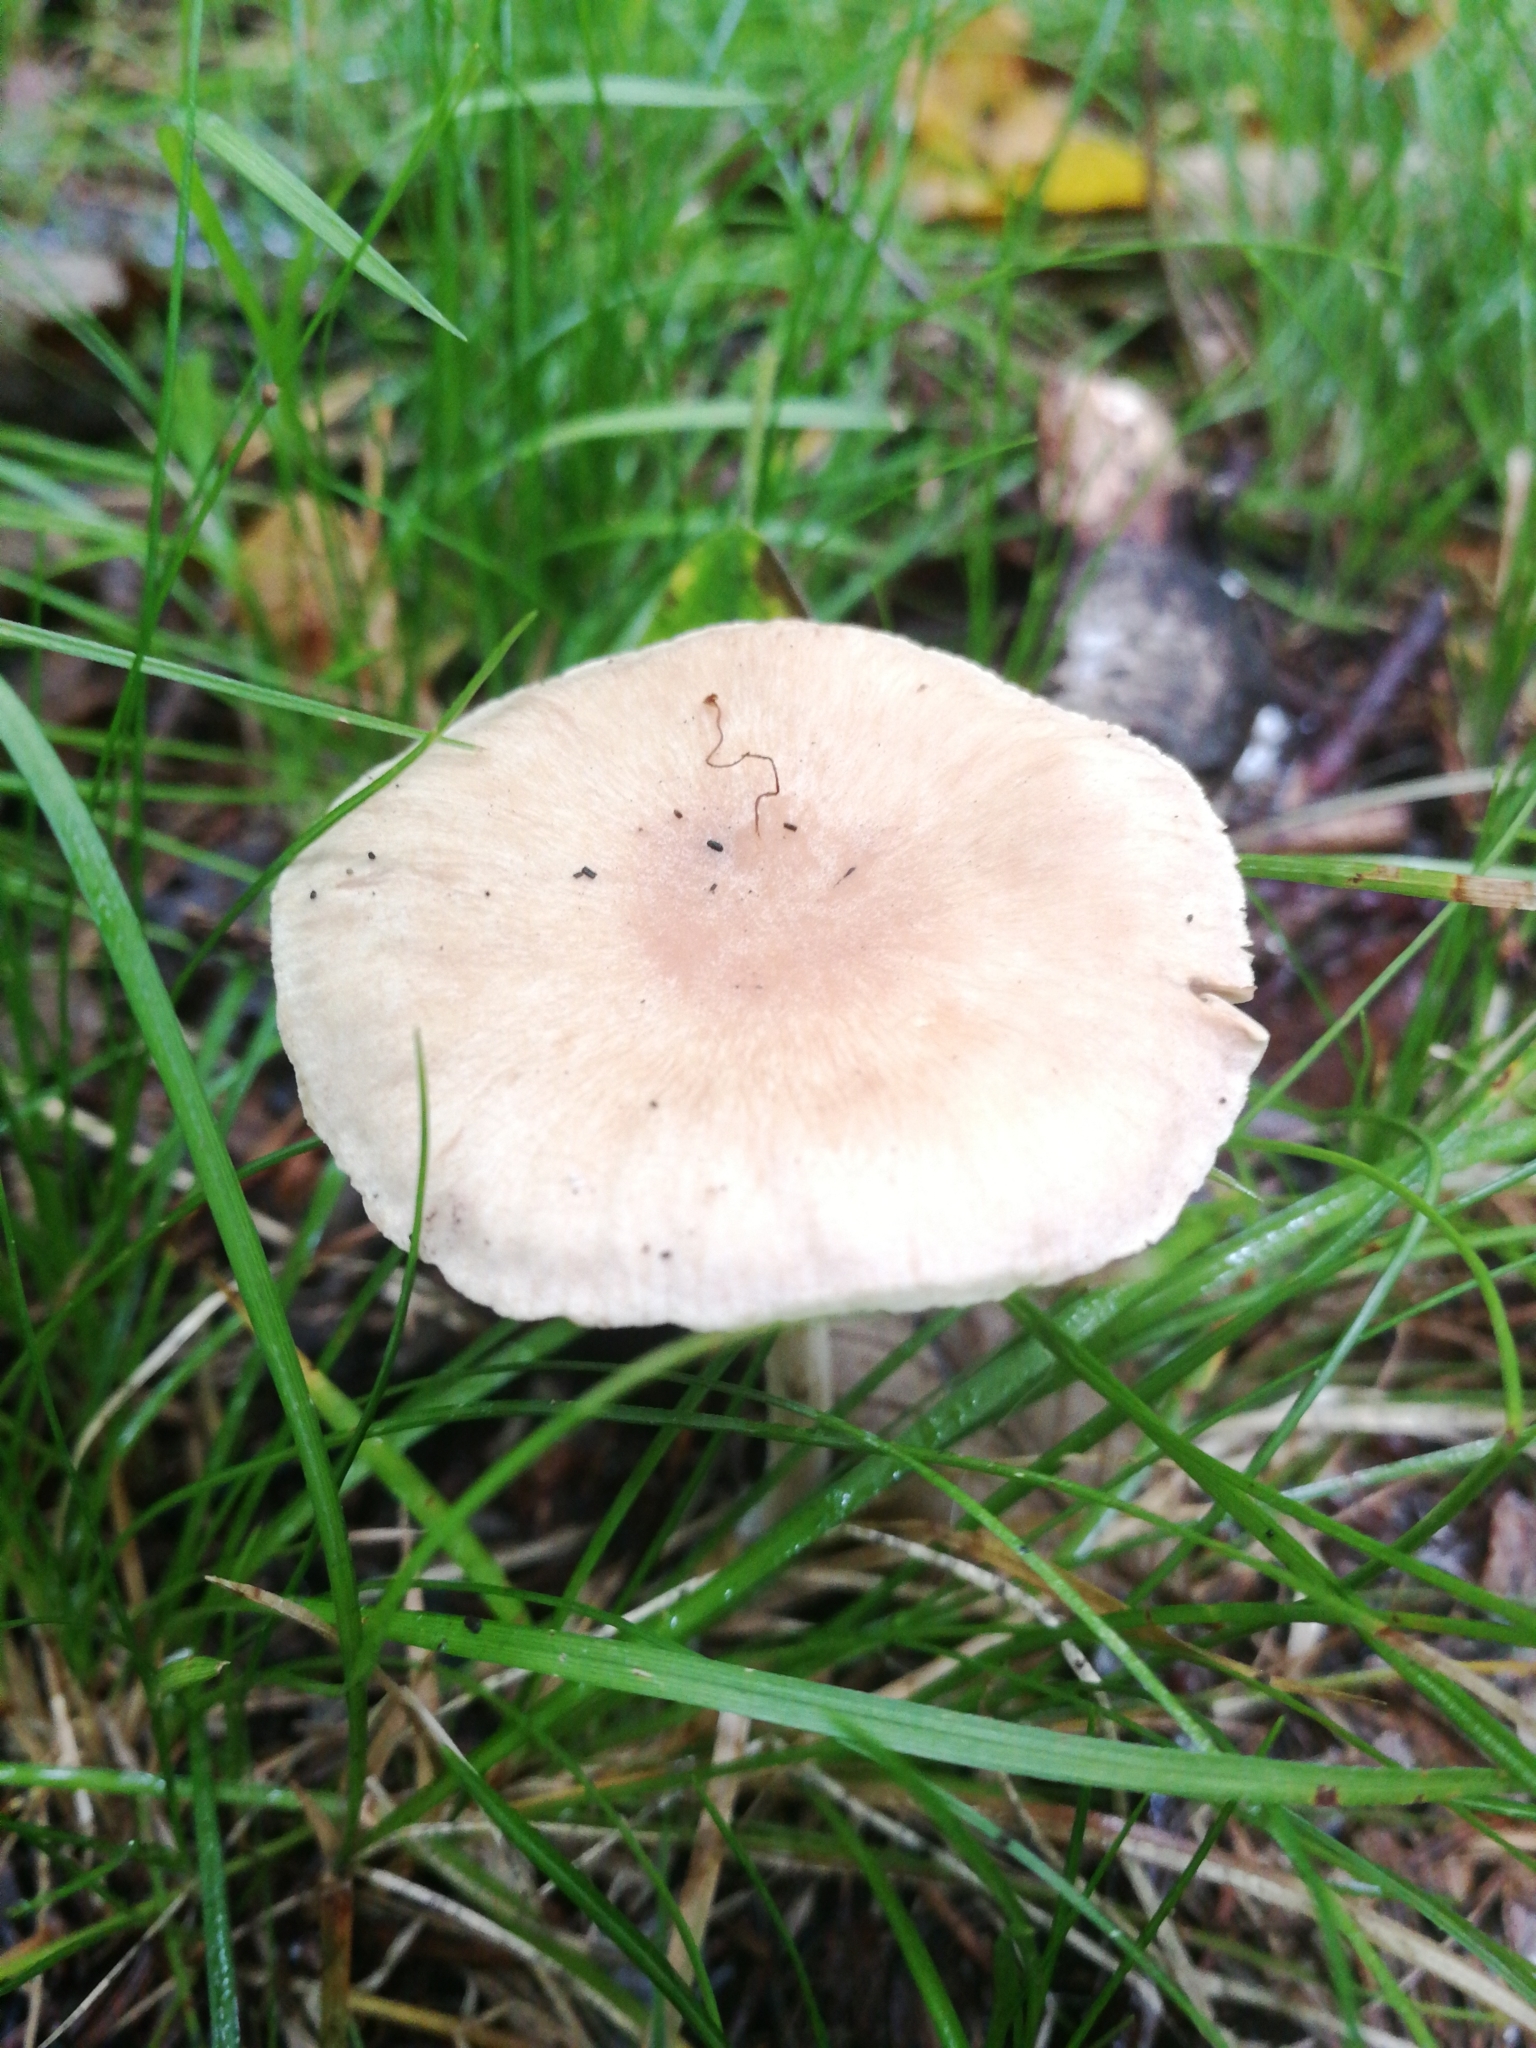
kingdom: Fungi
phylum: Basidiomycota
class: Agaricomycetes
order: Agaricales
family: Omphalotaceae
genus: Collybiopsis
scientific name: Collybiopsis peronata
